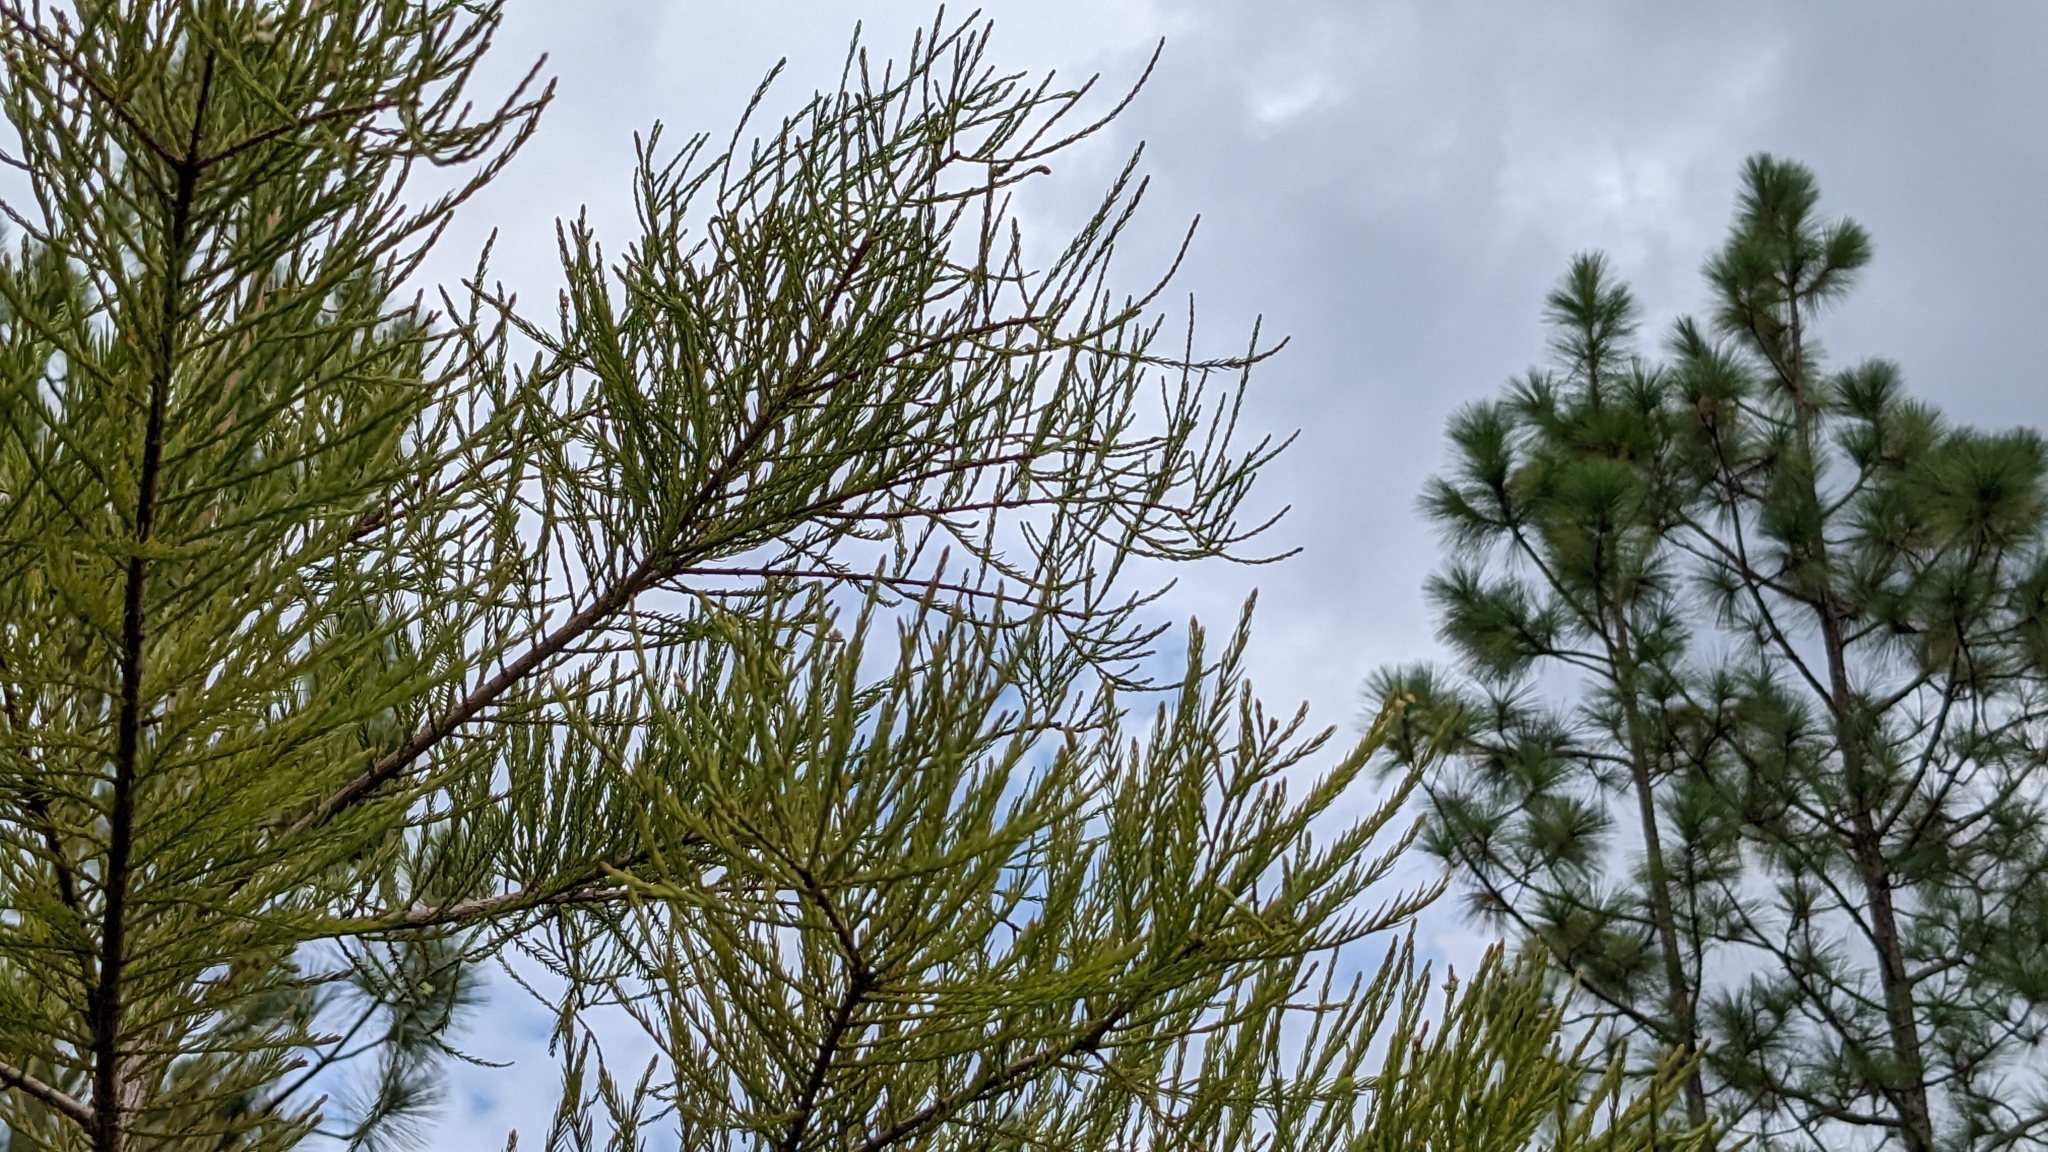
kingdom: Plantae
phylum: Tracheophyta
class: Pinopsida
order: Pinales
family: Cupressaceae
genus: Taxodium
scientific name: Taxodium distichum
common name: Bald cypress
